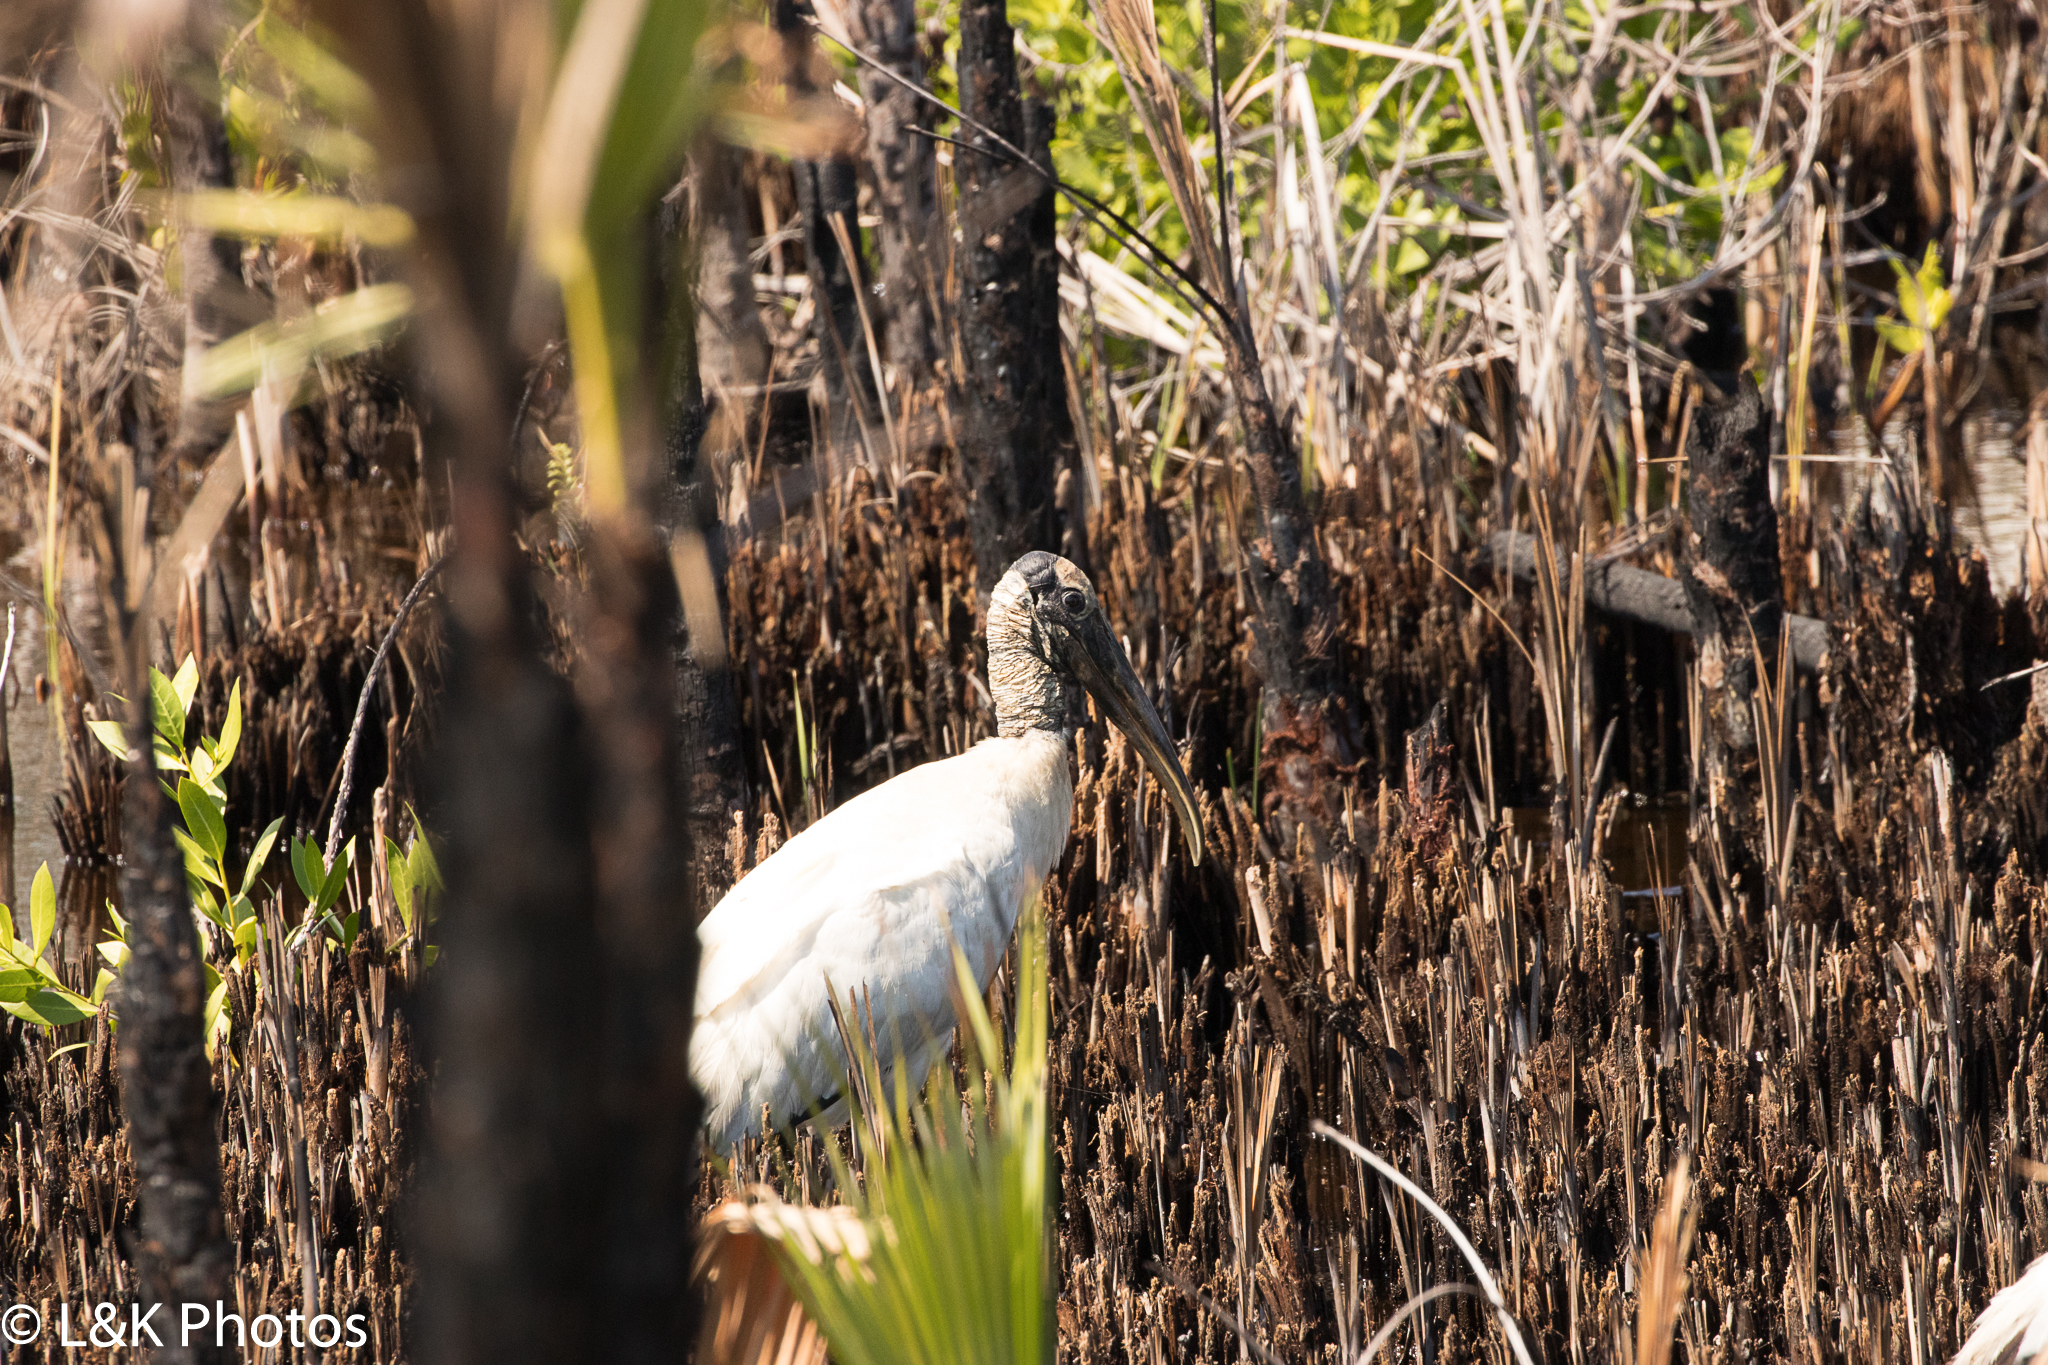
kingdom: Animalia
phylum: Chordata
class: Aves
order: Ciconiiformes
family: Ciconiidae
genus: Mycteria
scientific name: Mycteria americana
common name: Wood stork
